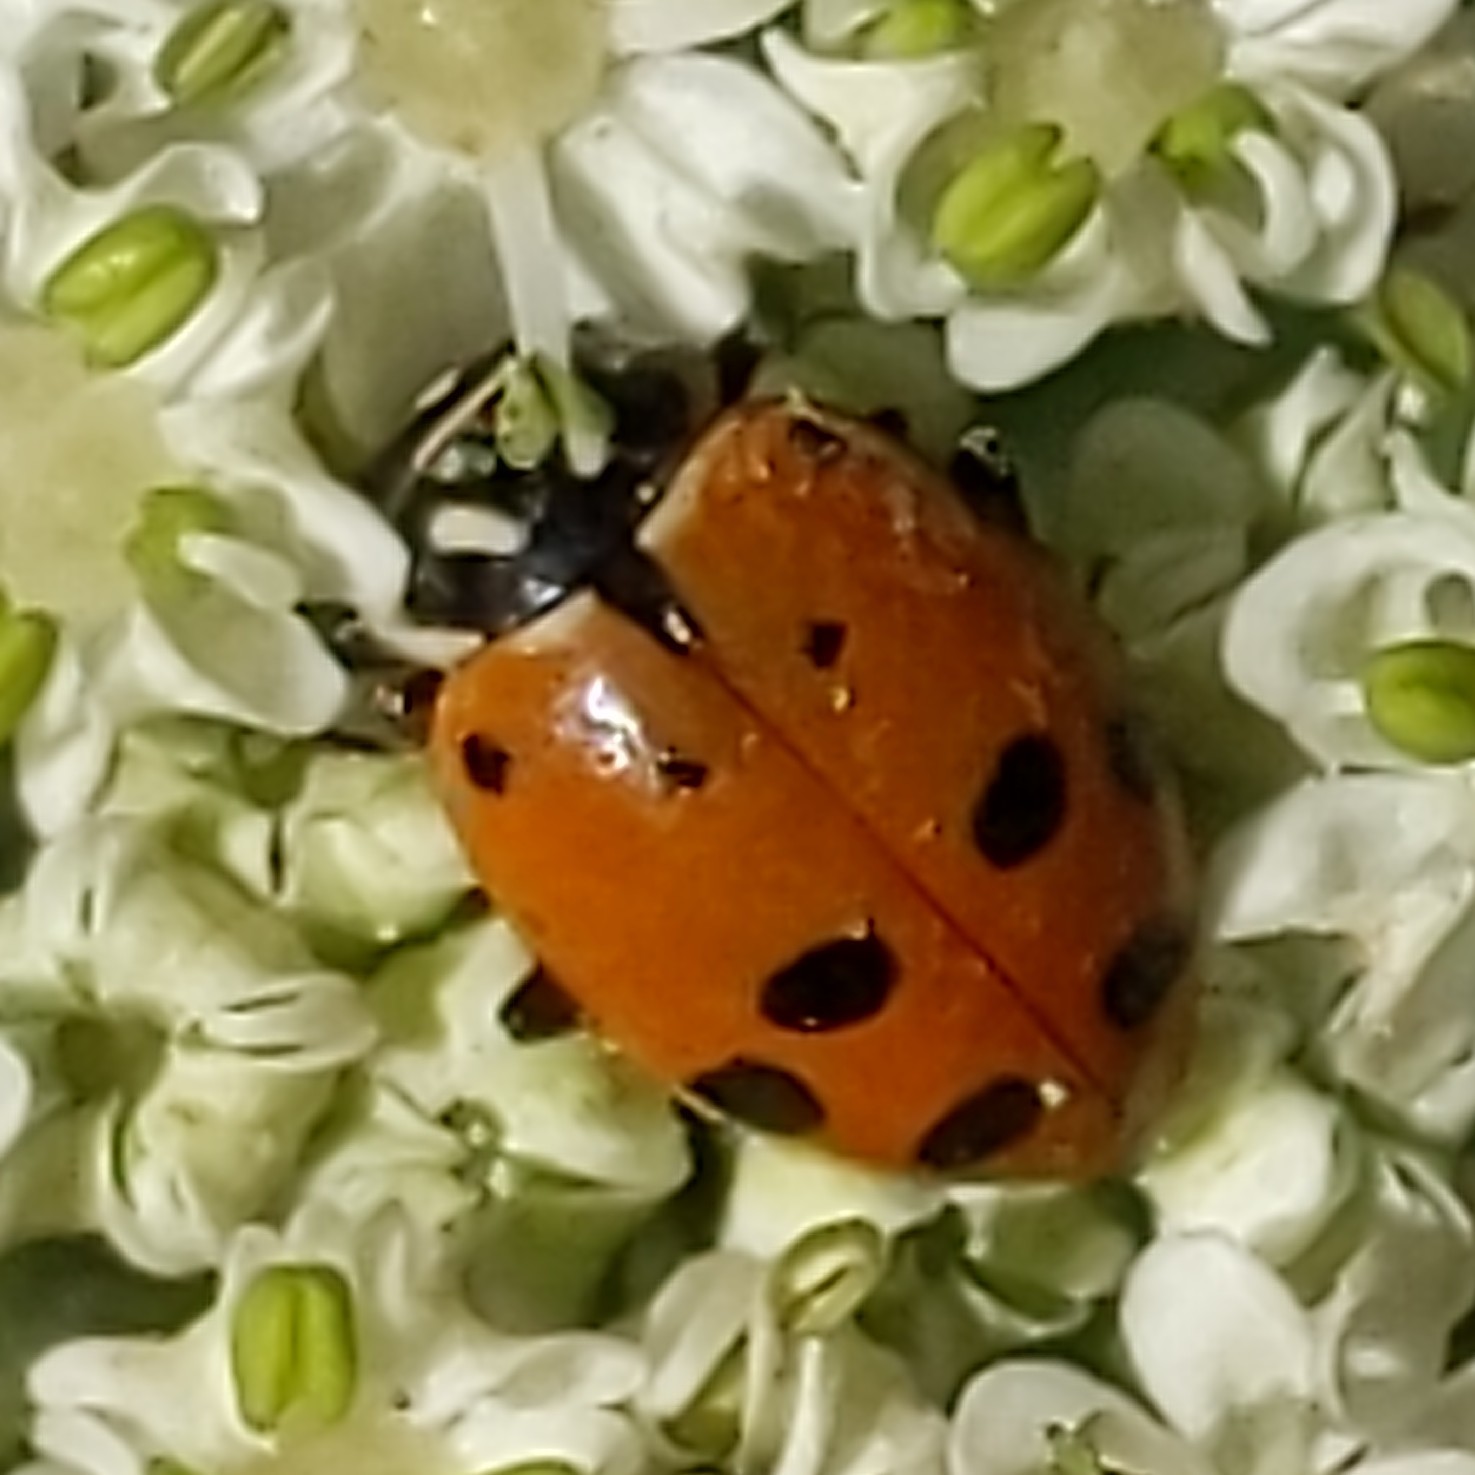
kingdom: Animalia
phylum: Arthropoda
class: Insecta
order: Coleoptera
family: Coccinellidae
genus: Hippodamia
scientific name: Hippodamia convergens
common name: Convergent lady beetle
